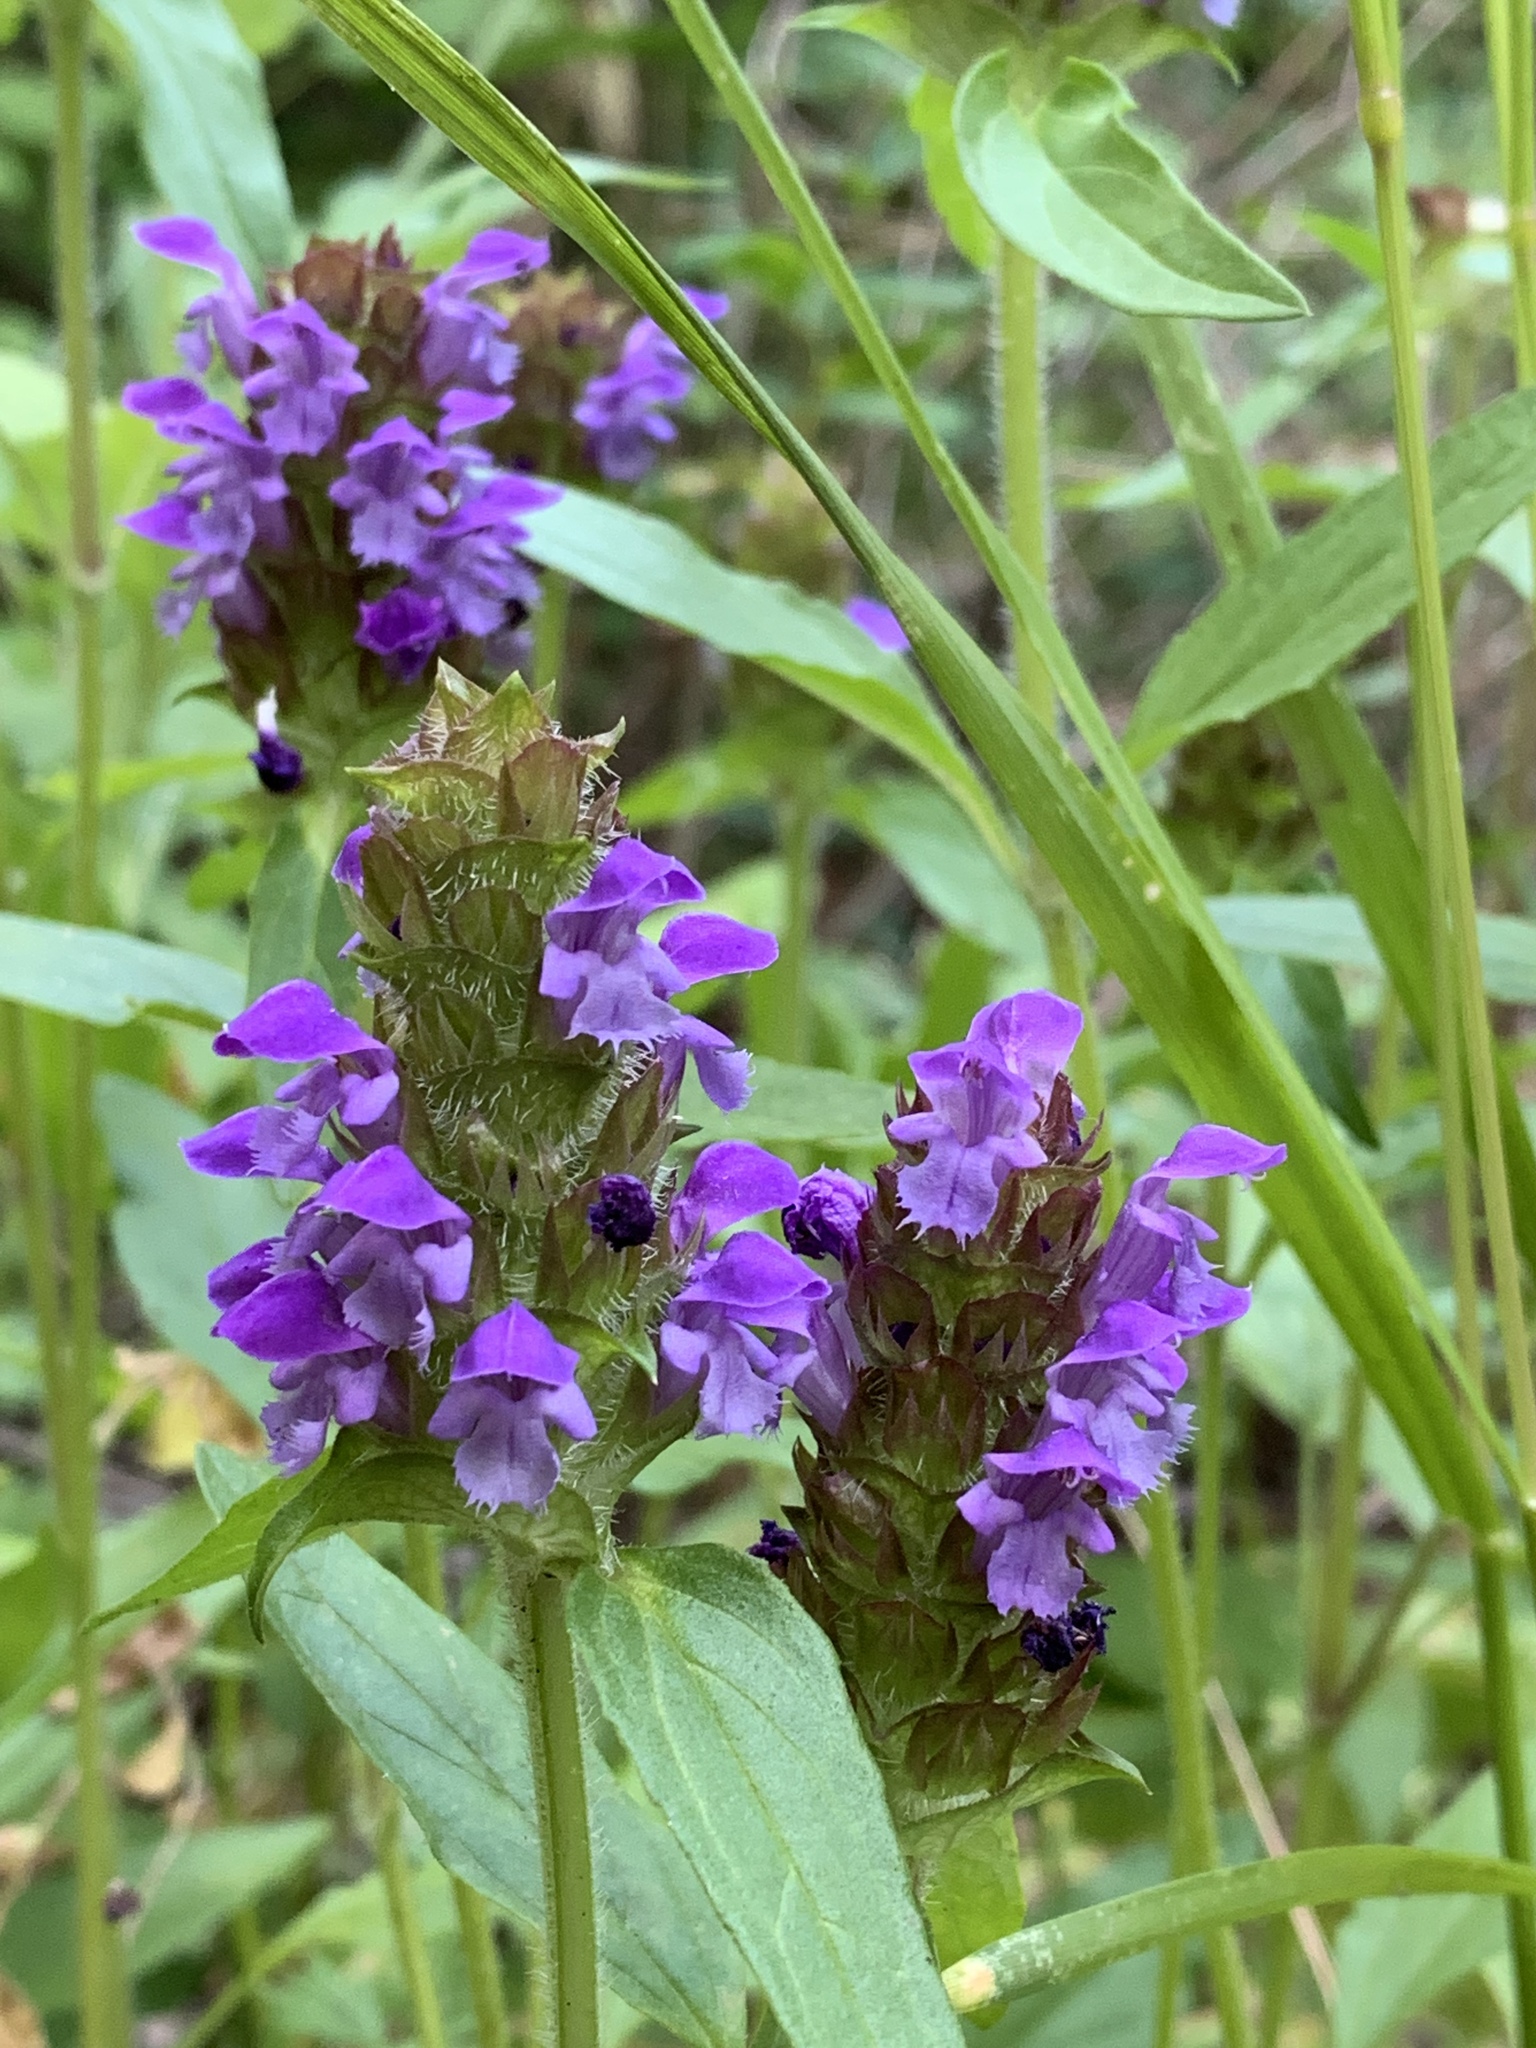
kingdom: Plantae
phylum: Tracheophyta
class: Magnoliopsida
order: Lamiales
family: Lamiaceae
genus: Prunella
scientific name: Prunella vulgaris
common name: Heal-all
